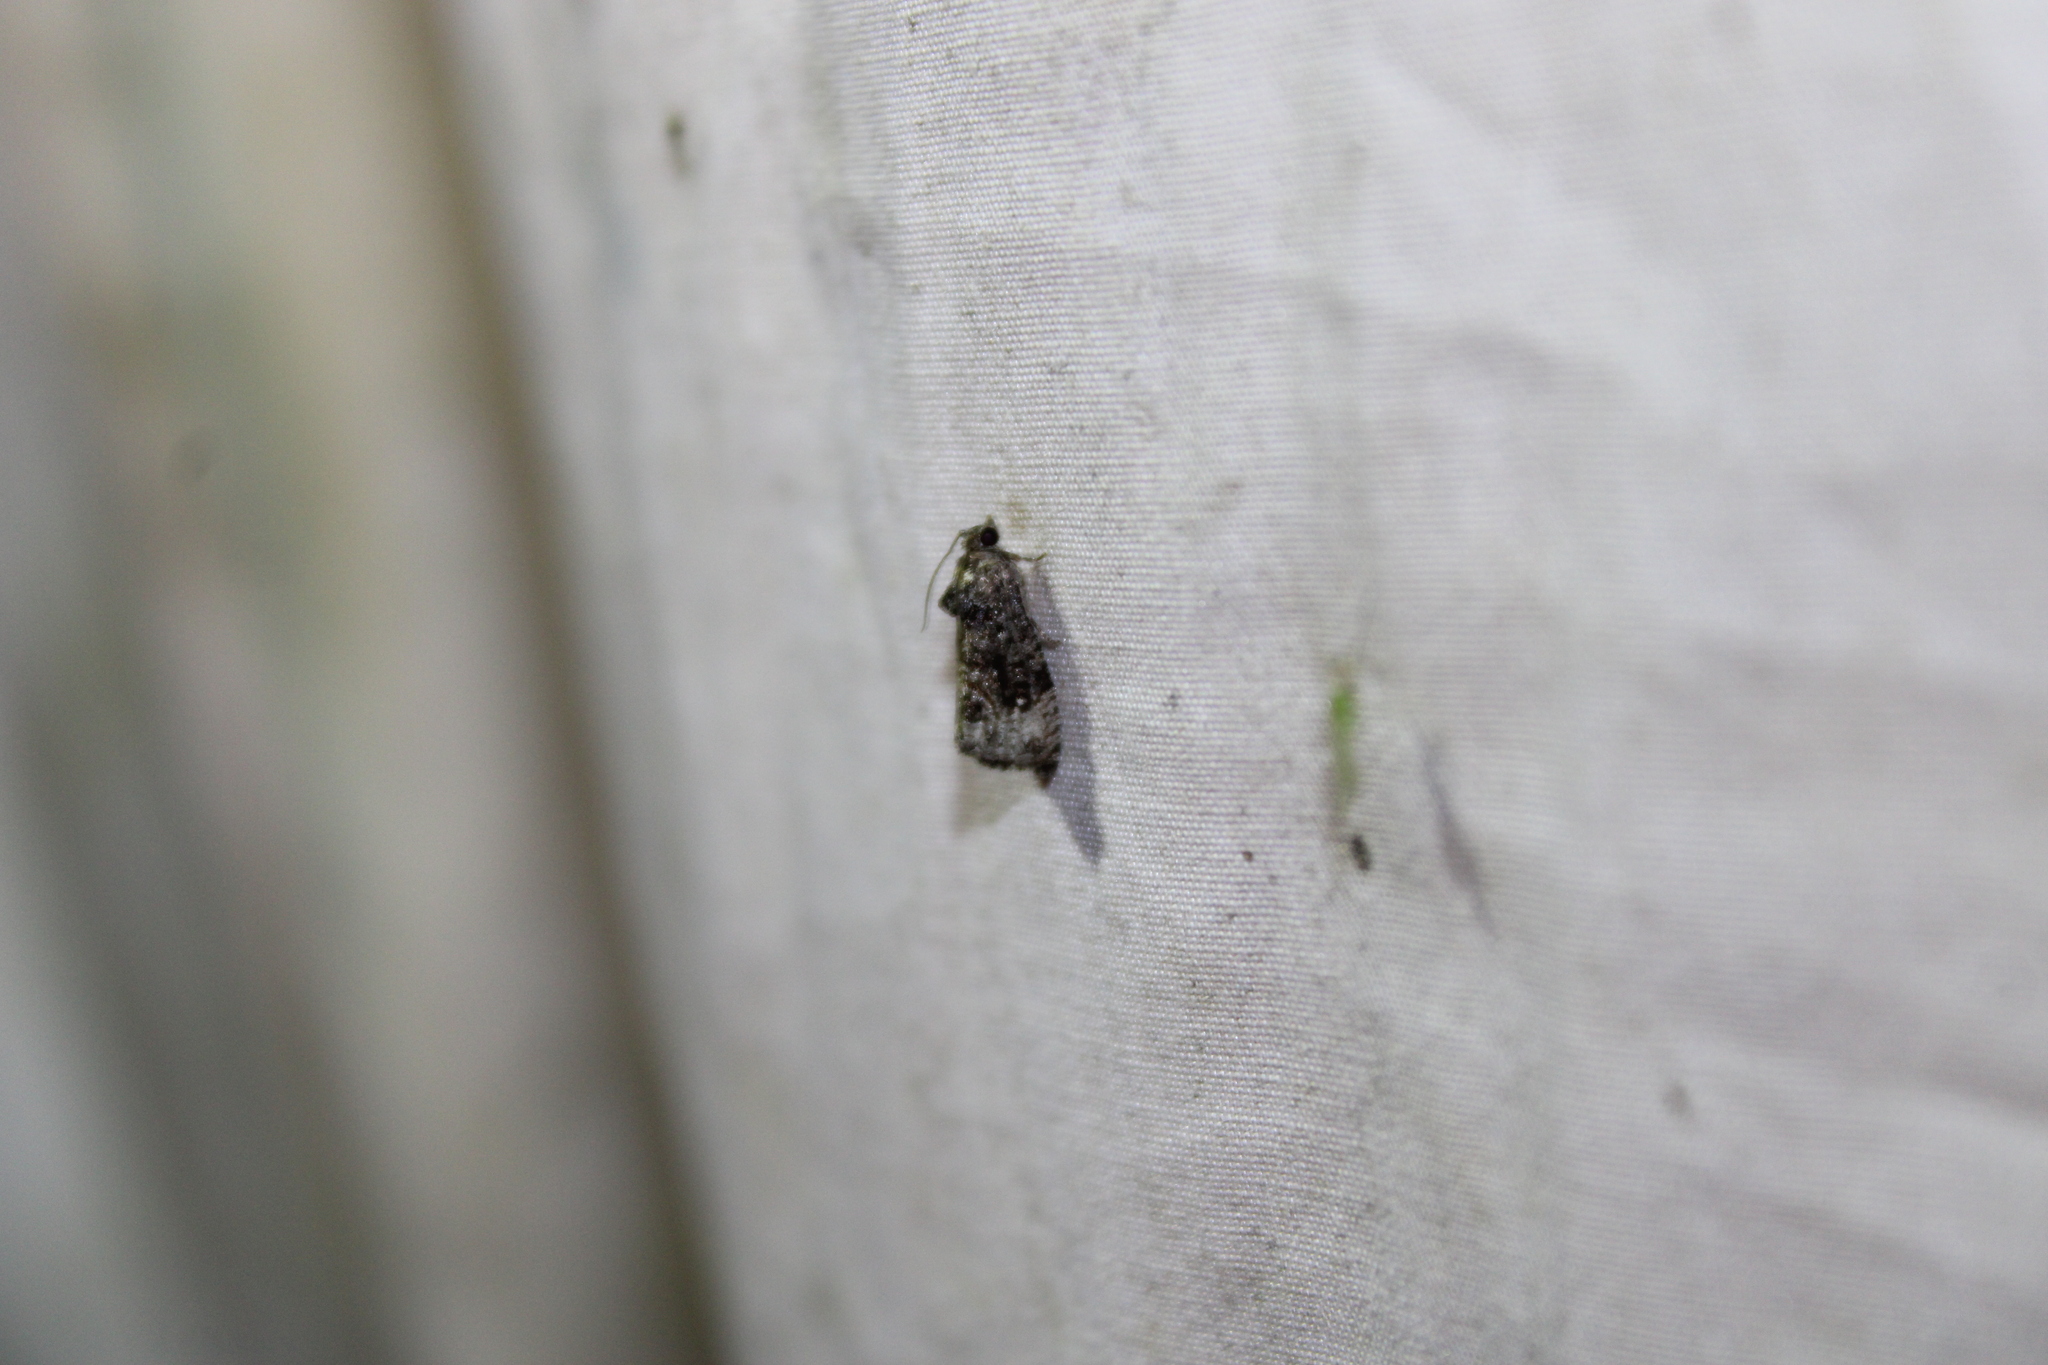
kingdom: Animalia
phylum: Arthropoda
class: Insecta
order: Lepidoptera
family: Tortricidae
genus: Gymnandrosoma
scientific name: Gymnandrosoma punctidiscanum
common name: Dotted ecdytolopha moth
